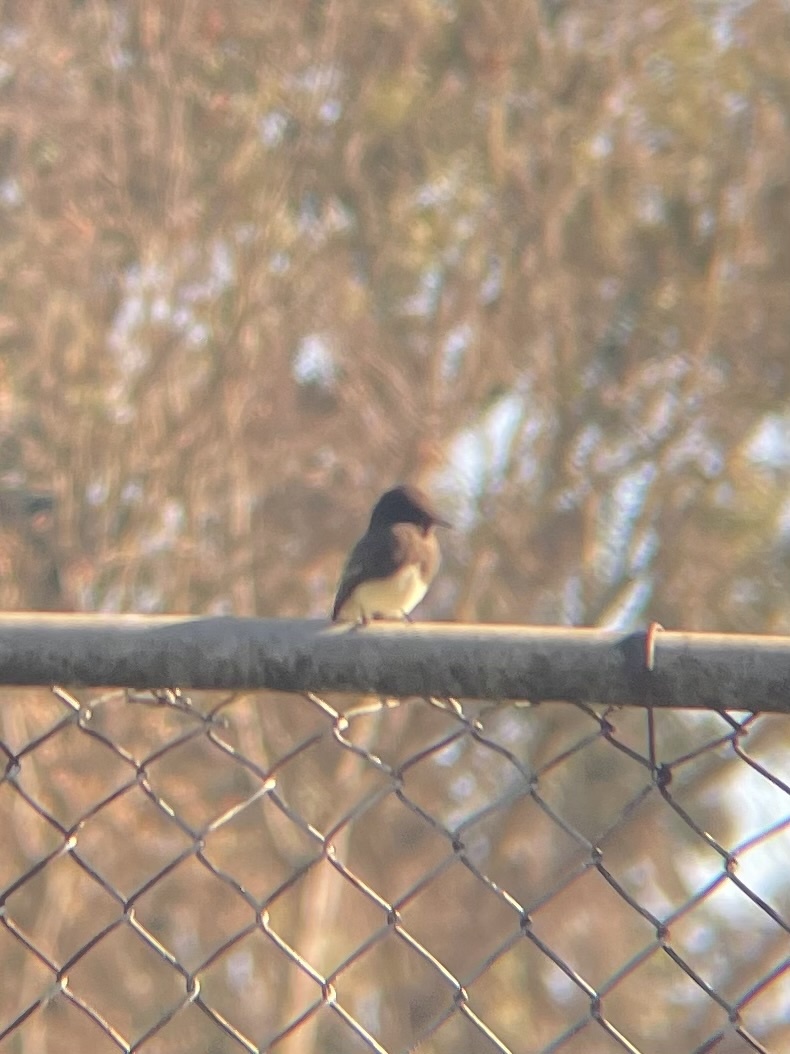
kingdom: Animalia
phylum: Chordata
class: Aves
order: Passeriformes
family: Tyrannidae
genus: Sayornis
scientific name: Sayornis nigricans
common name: Black phoebe
